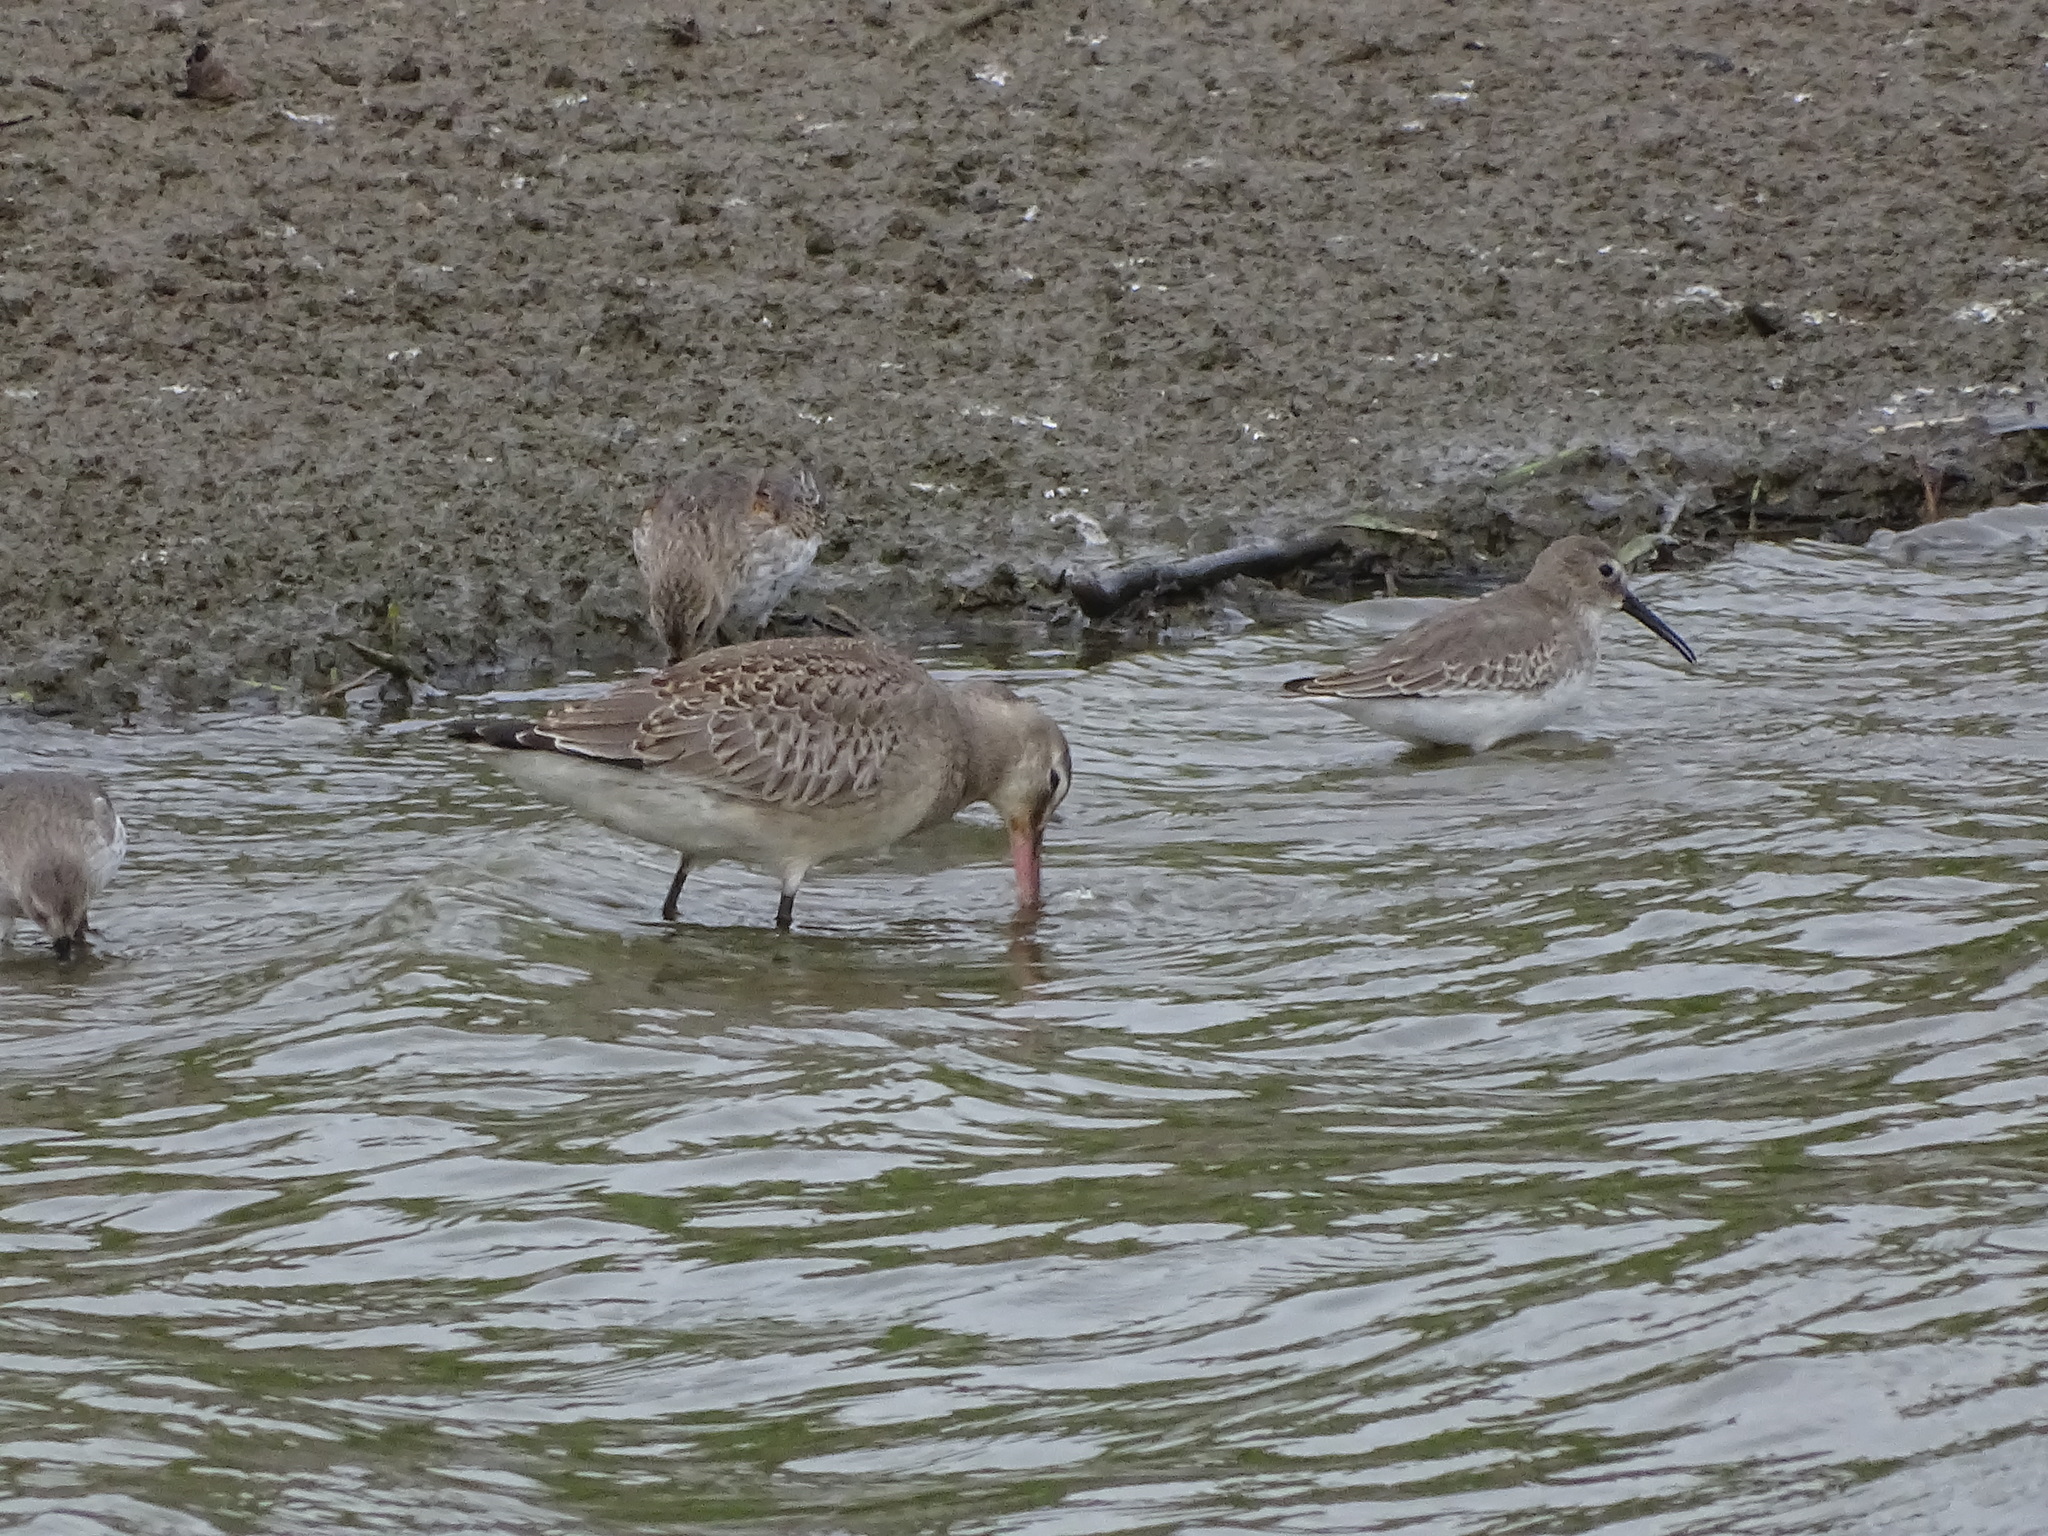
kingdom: Animalia
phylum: Chordata
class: Aves
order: Charadriiformes
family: Scolopacidae
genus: Limosa
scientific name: Limosa haemastica
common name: Hudsonian godwit
